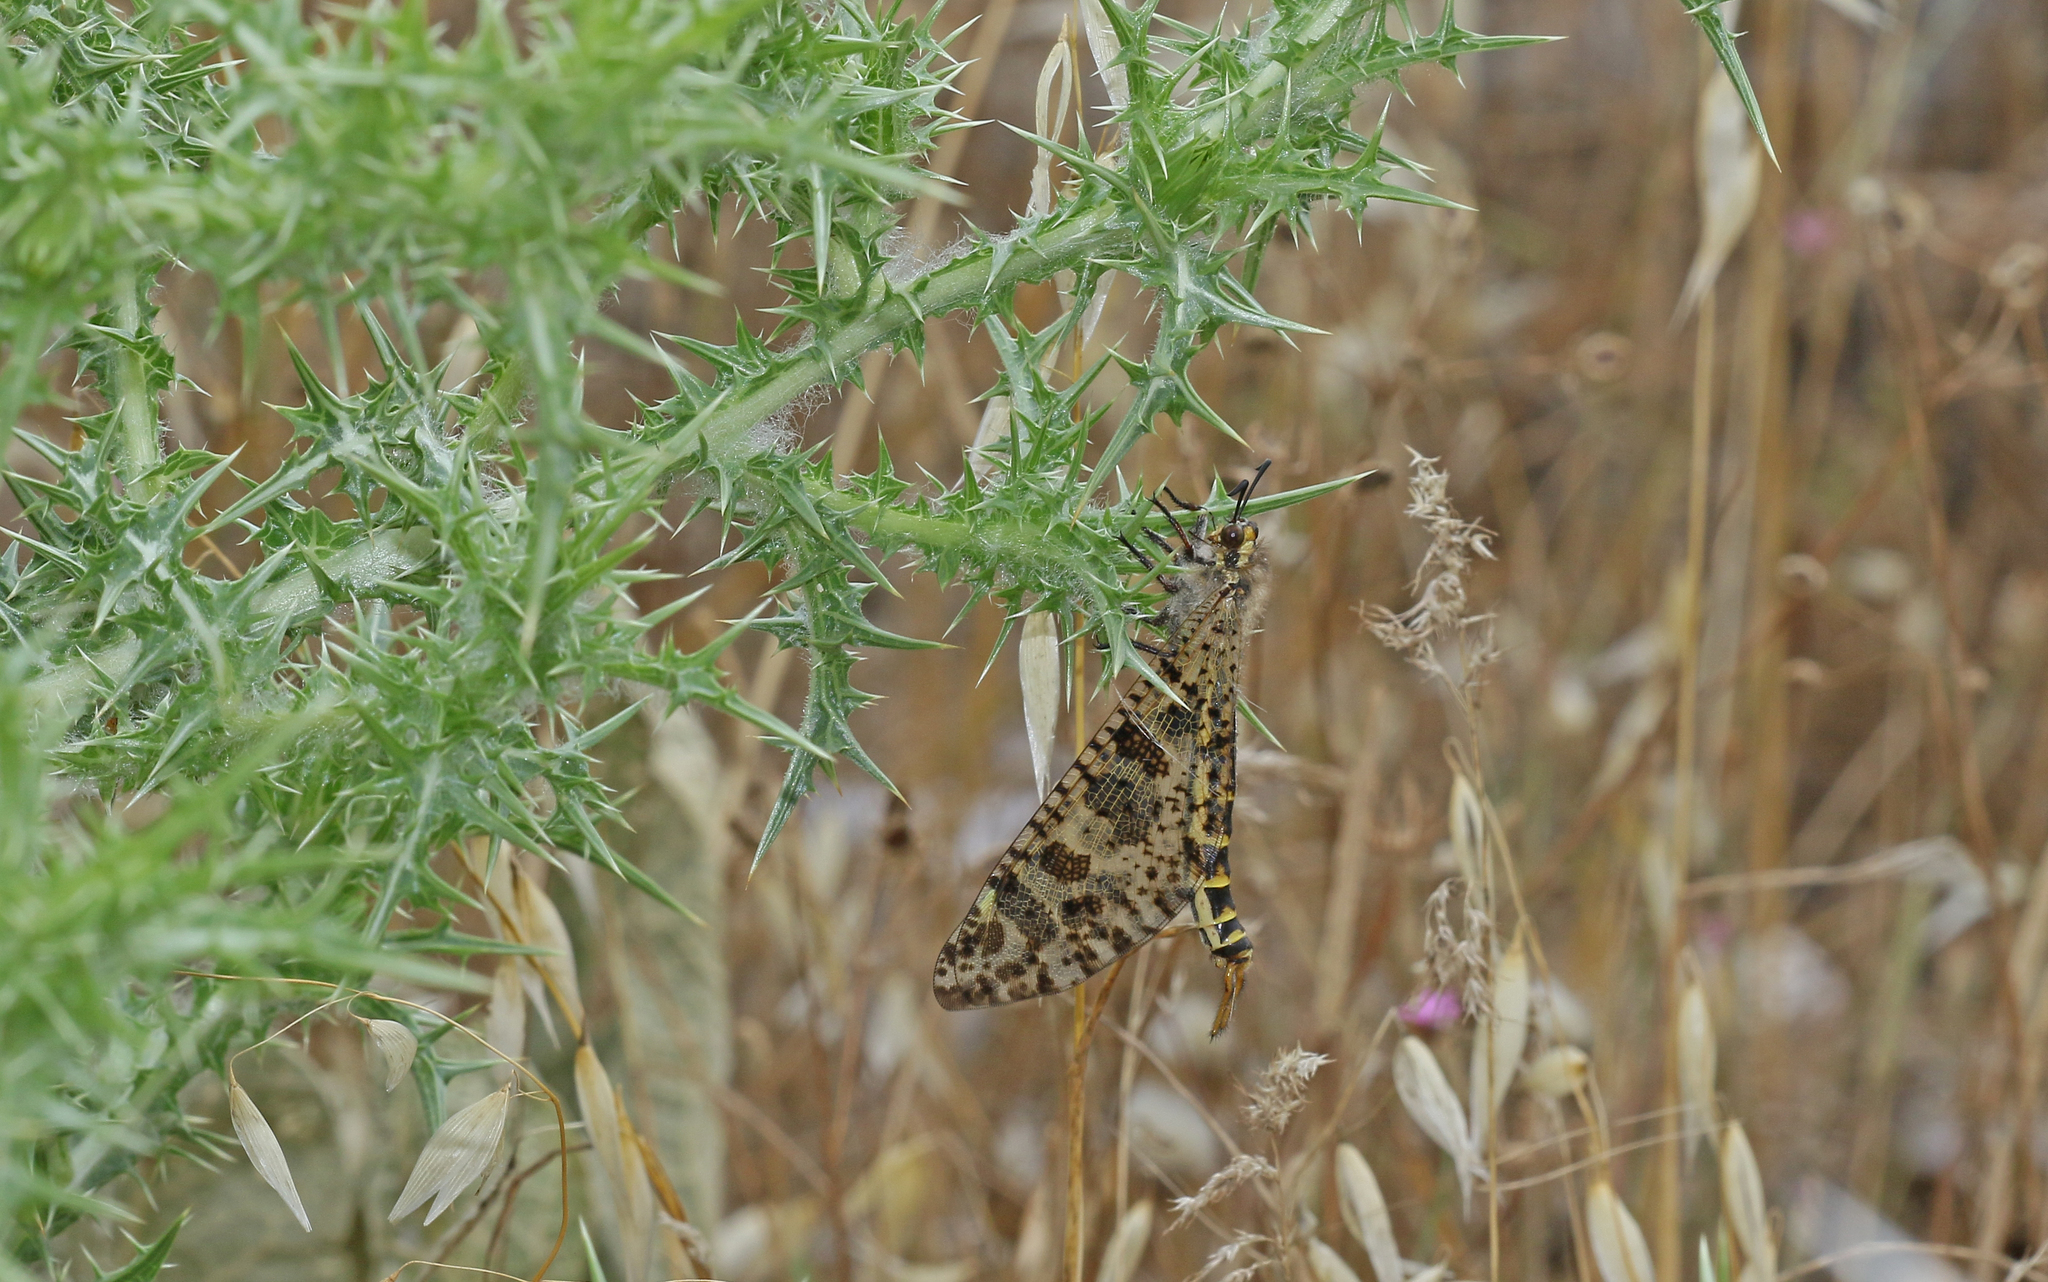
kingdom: Animalia
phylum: Arthropoda
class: Insecta
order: Neuroptera
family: Myrmeleontidae
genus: Palpares
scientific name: Palpares libelluloides
